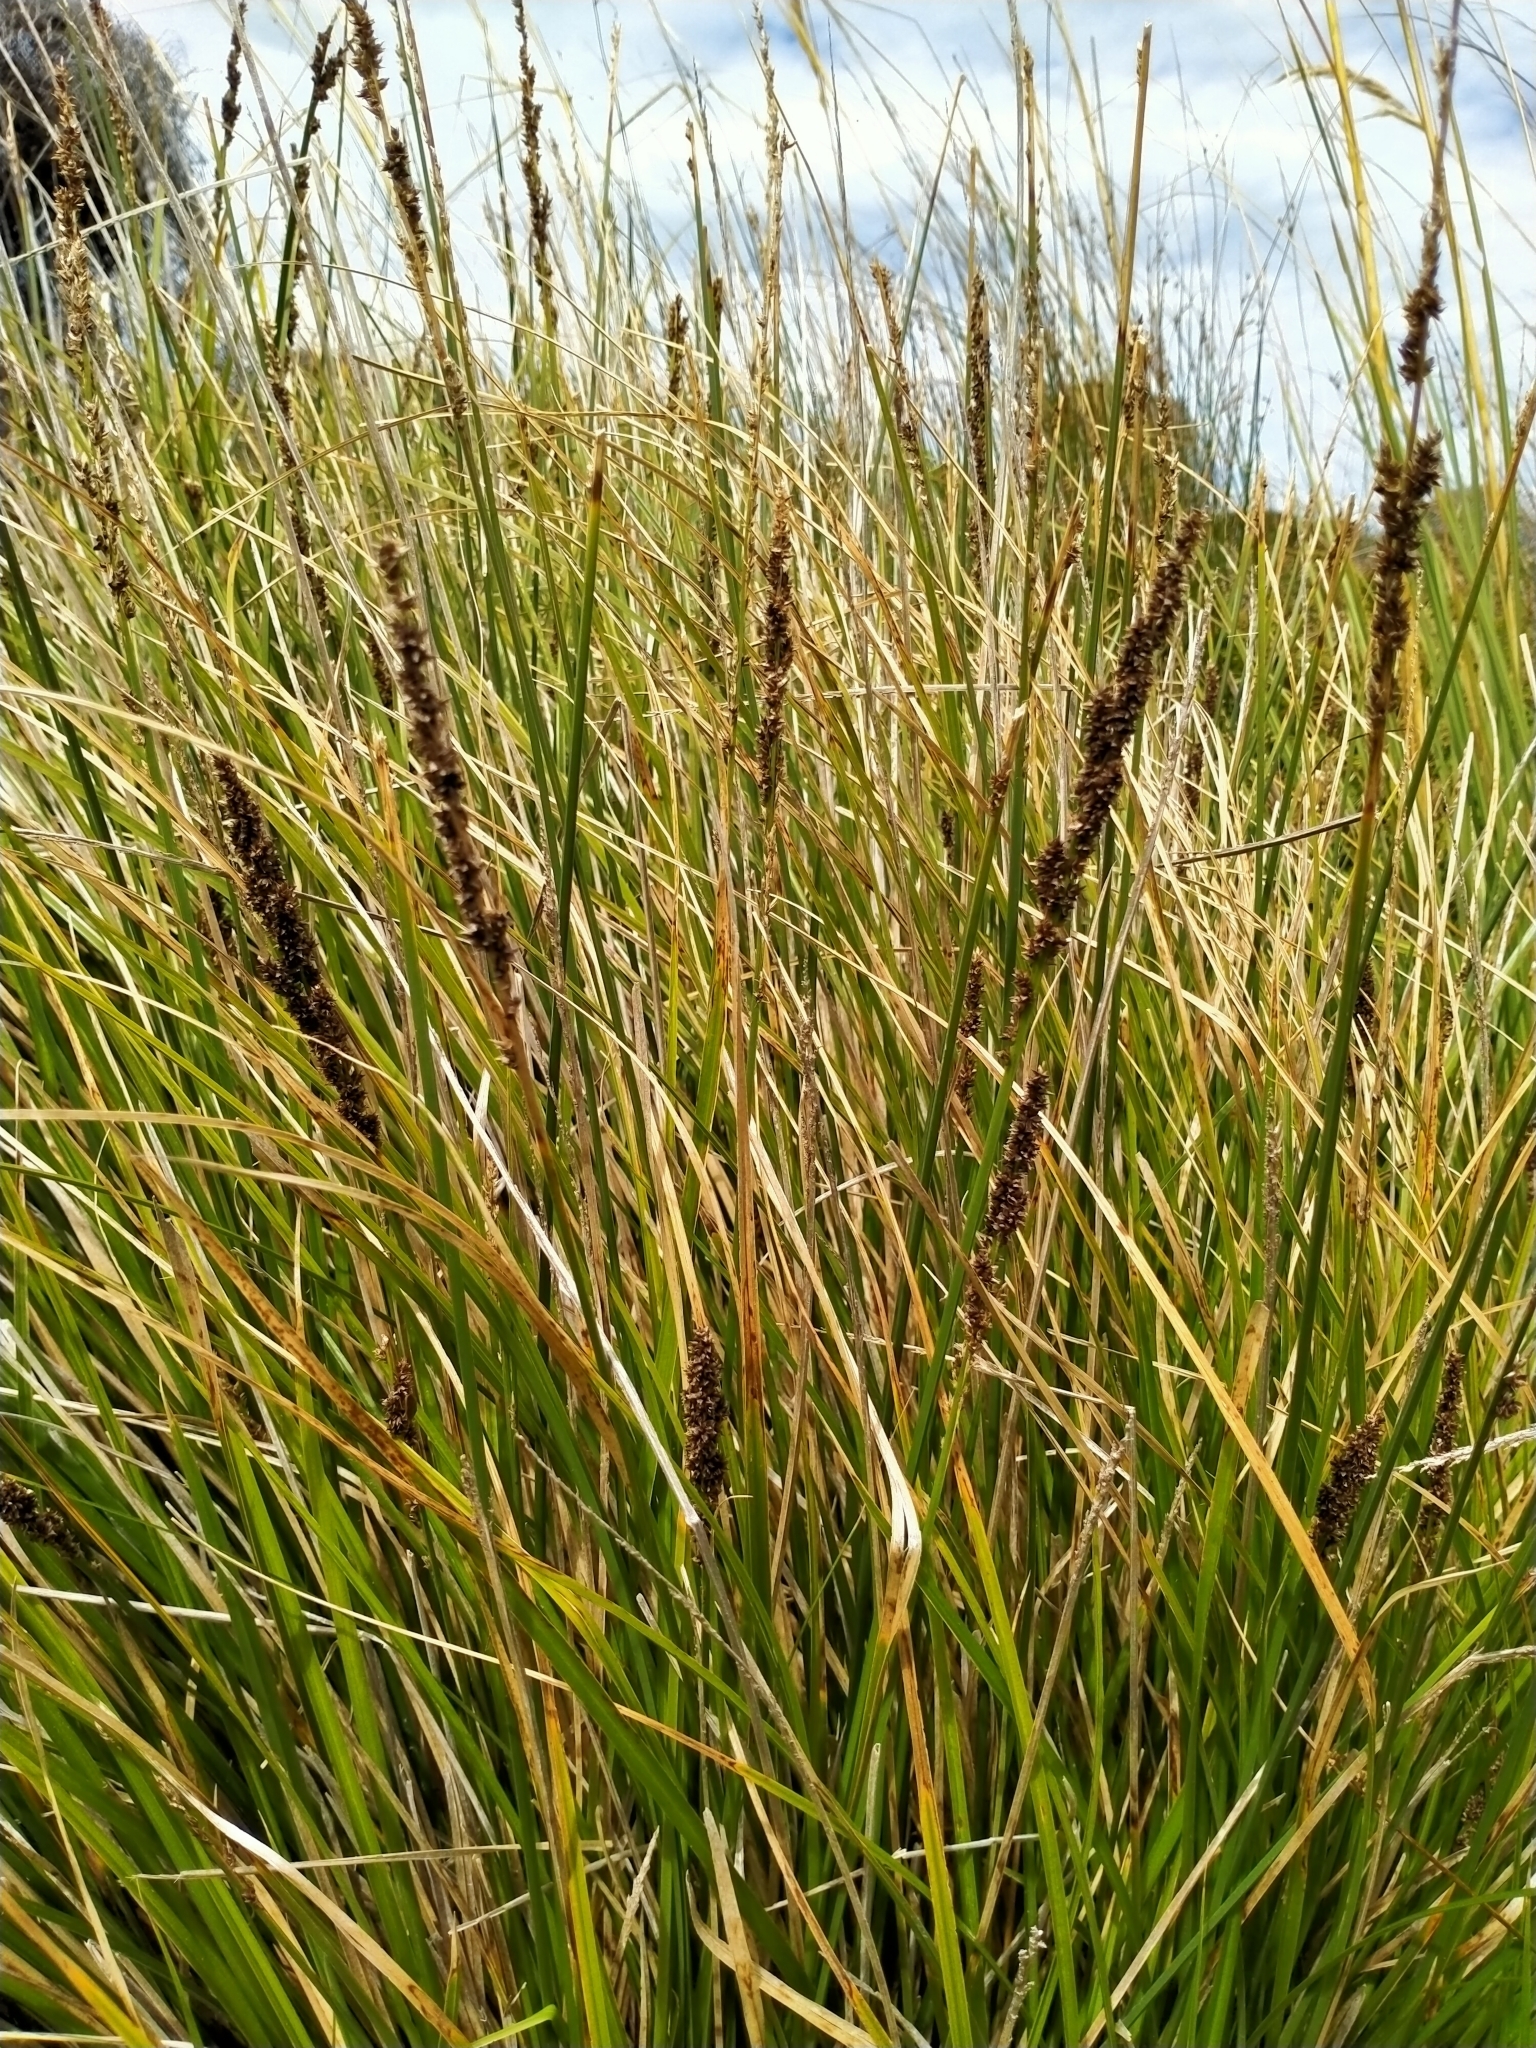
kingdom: Plantae
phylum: Tracheophyta
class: Liliopsida
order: Poales
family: Cyperaceae
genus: Carex
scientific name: Carex appressa
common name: Tussock sedge
